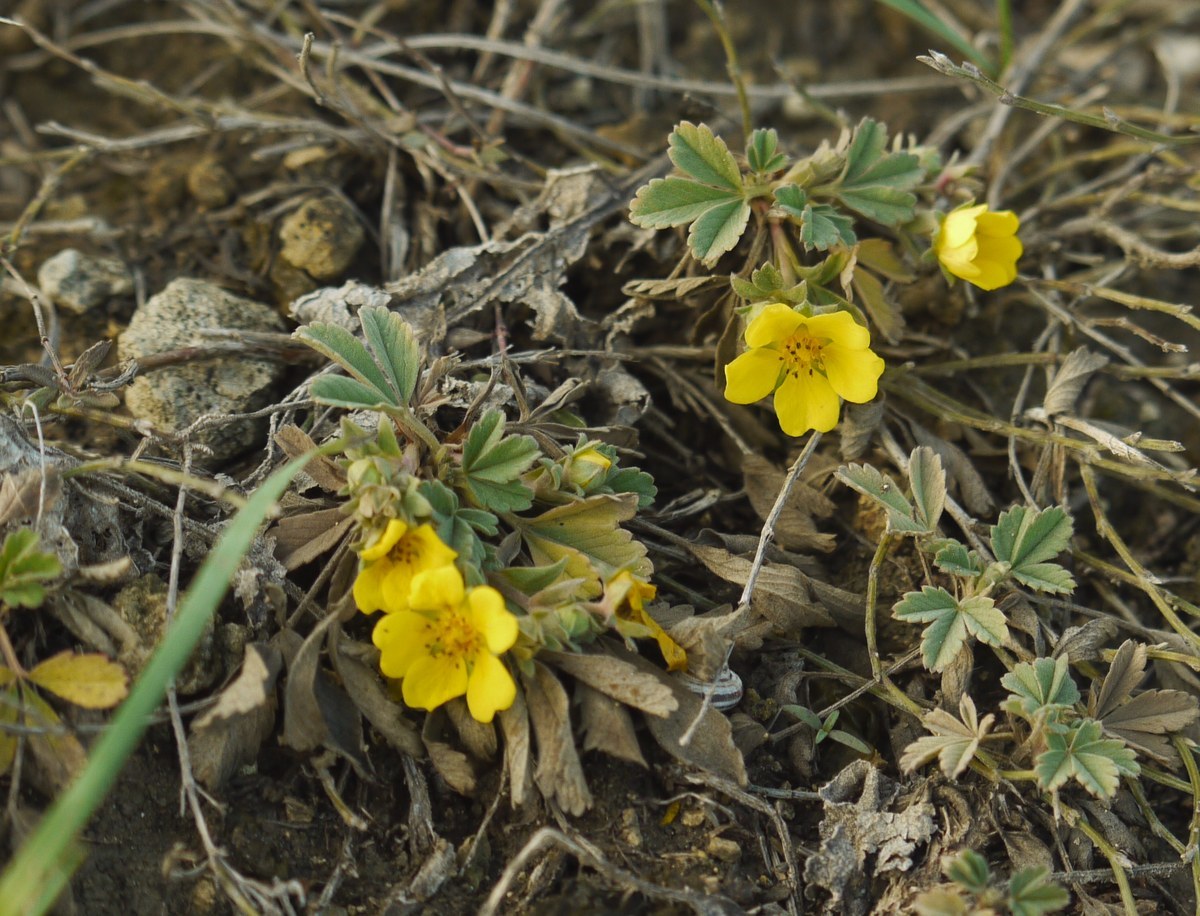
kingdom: Plantae
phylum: Tracheophyta
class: Magnoliopsida
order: Rosales
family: Rosaceae
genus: Potentilla
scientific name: Potentilla incana
